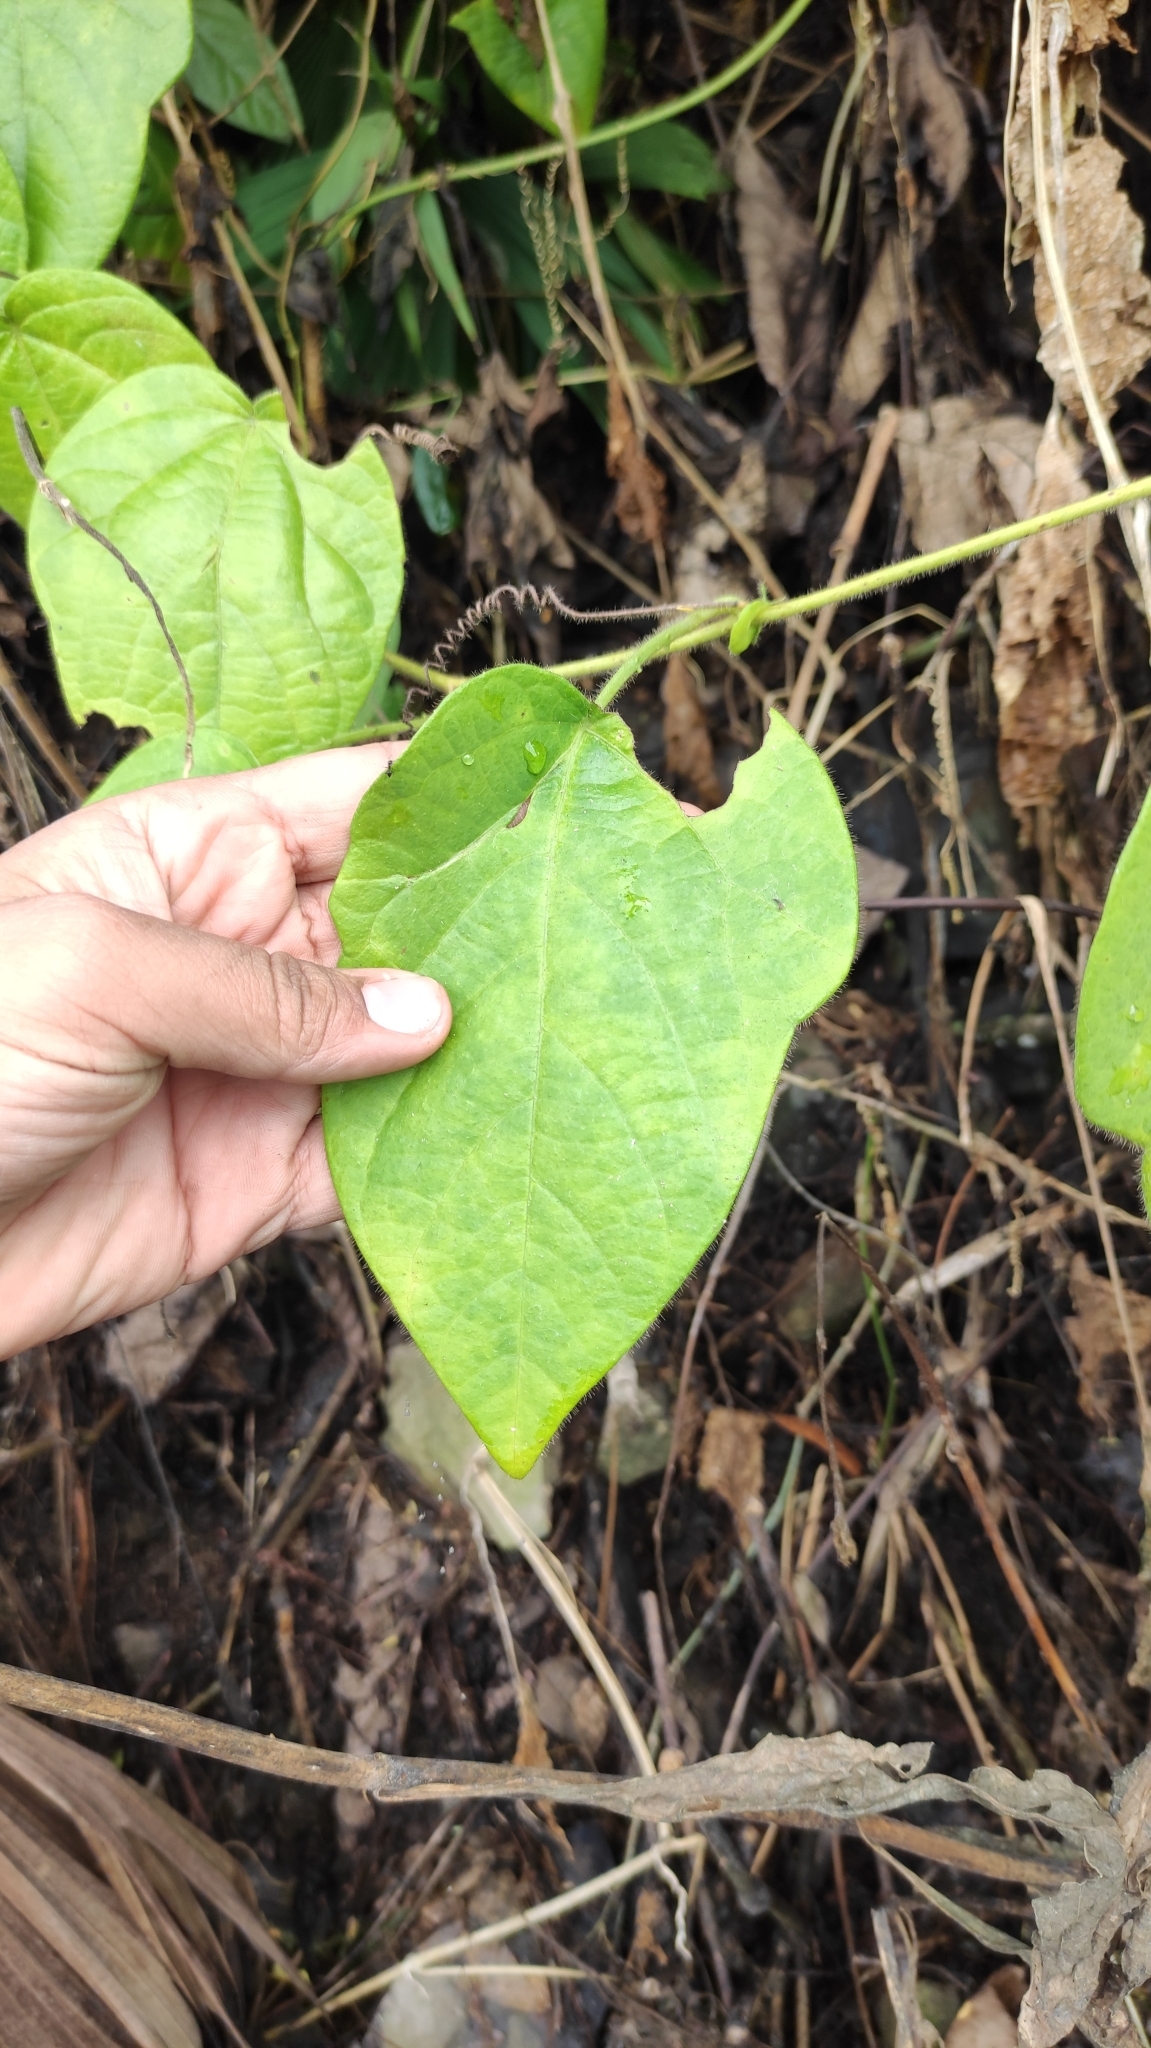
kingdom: Plantae
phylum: Tracheophyta
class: Magnoliopsida
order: Malpighiales
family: Passifloraceae
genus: Passiflora
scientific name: Passiflora menispermifolia
